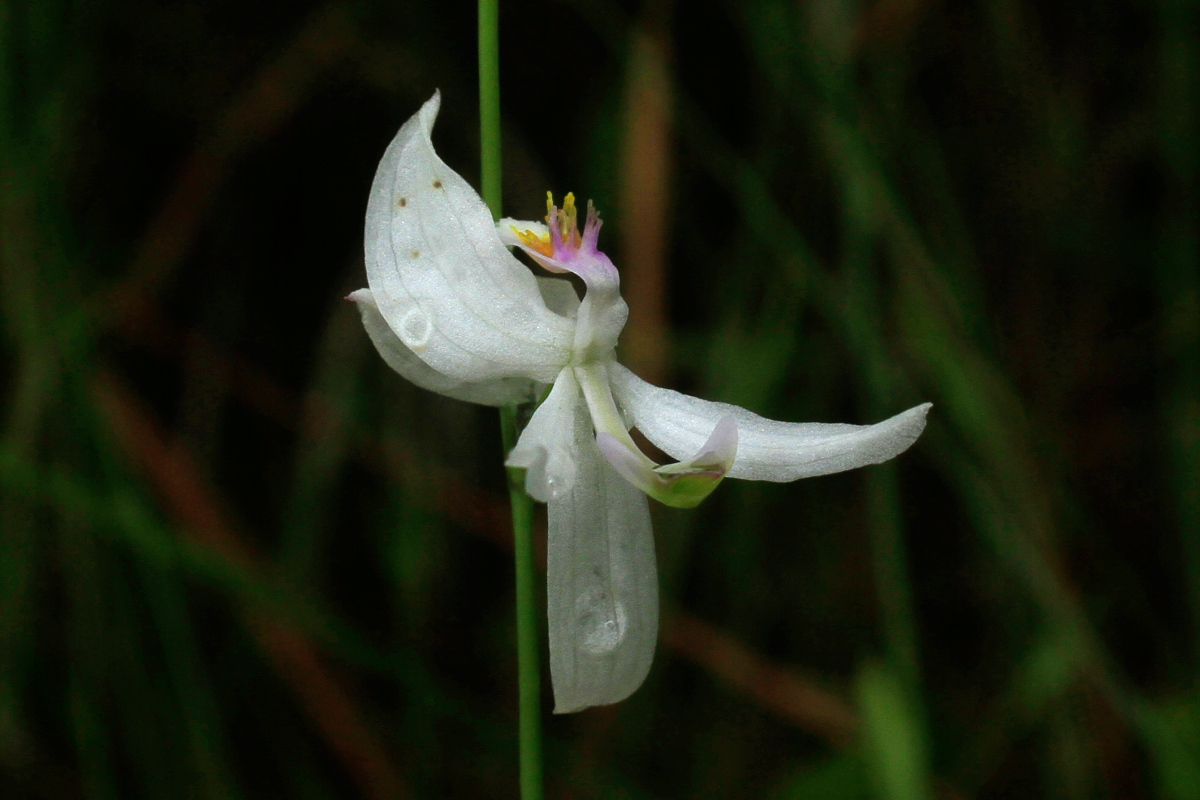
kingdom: Plantae
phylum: Tracheophyta
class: Liliopsida
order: Asparagales
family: Orchidaceae
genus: Calopogon
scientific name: Calopogon pallidus
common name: Pale grasspink
